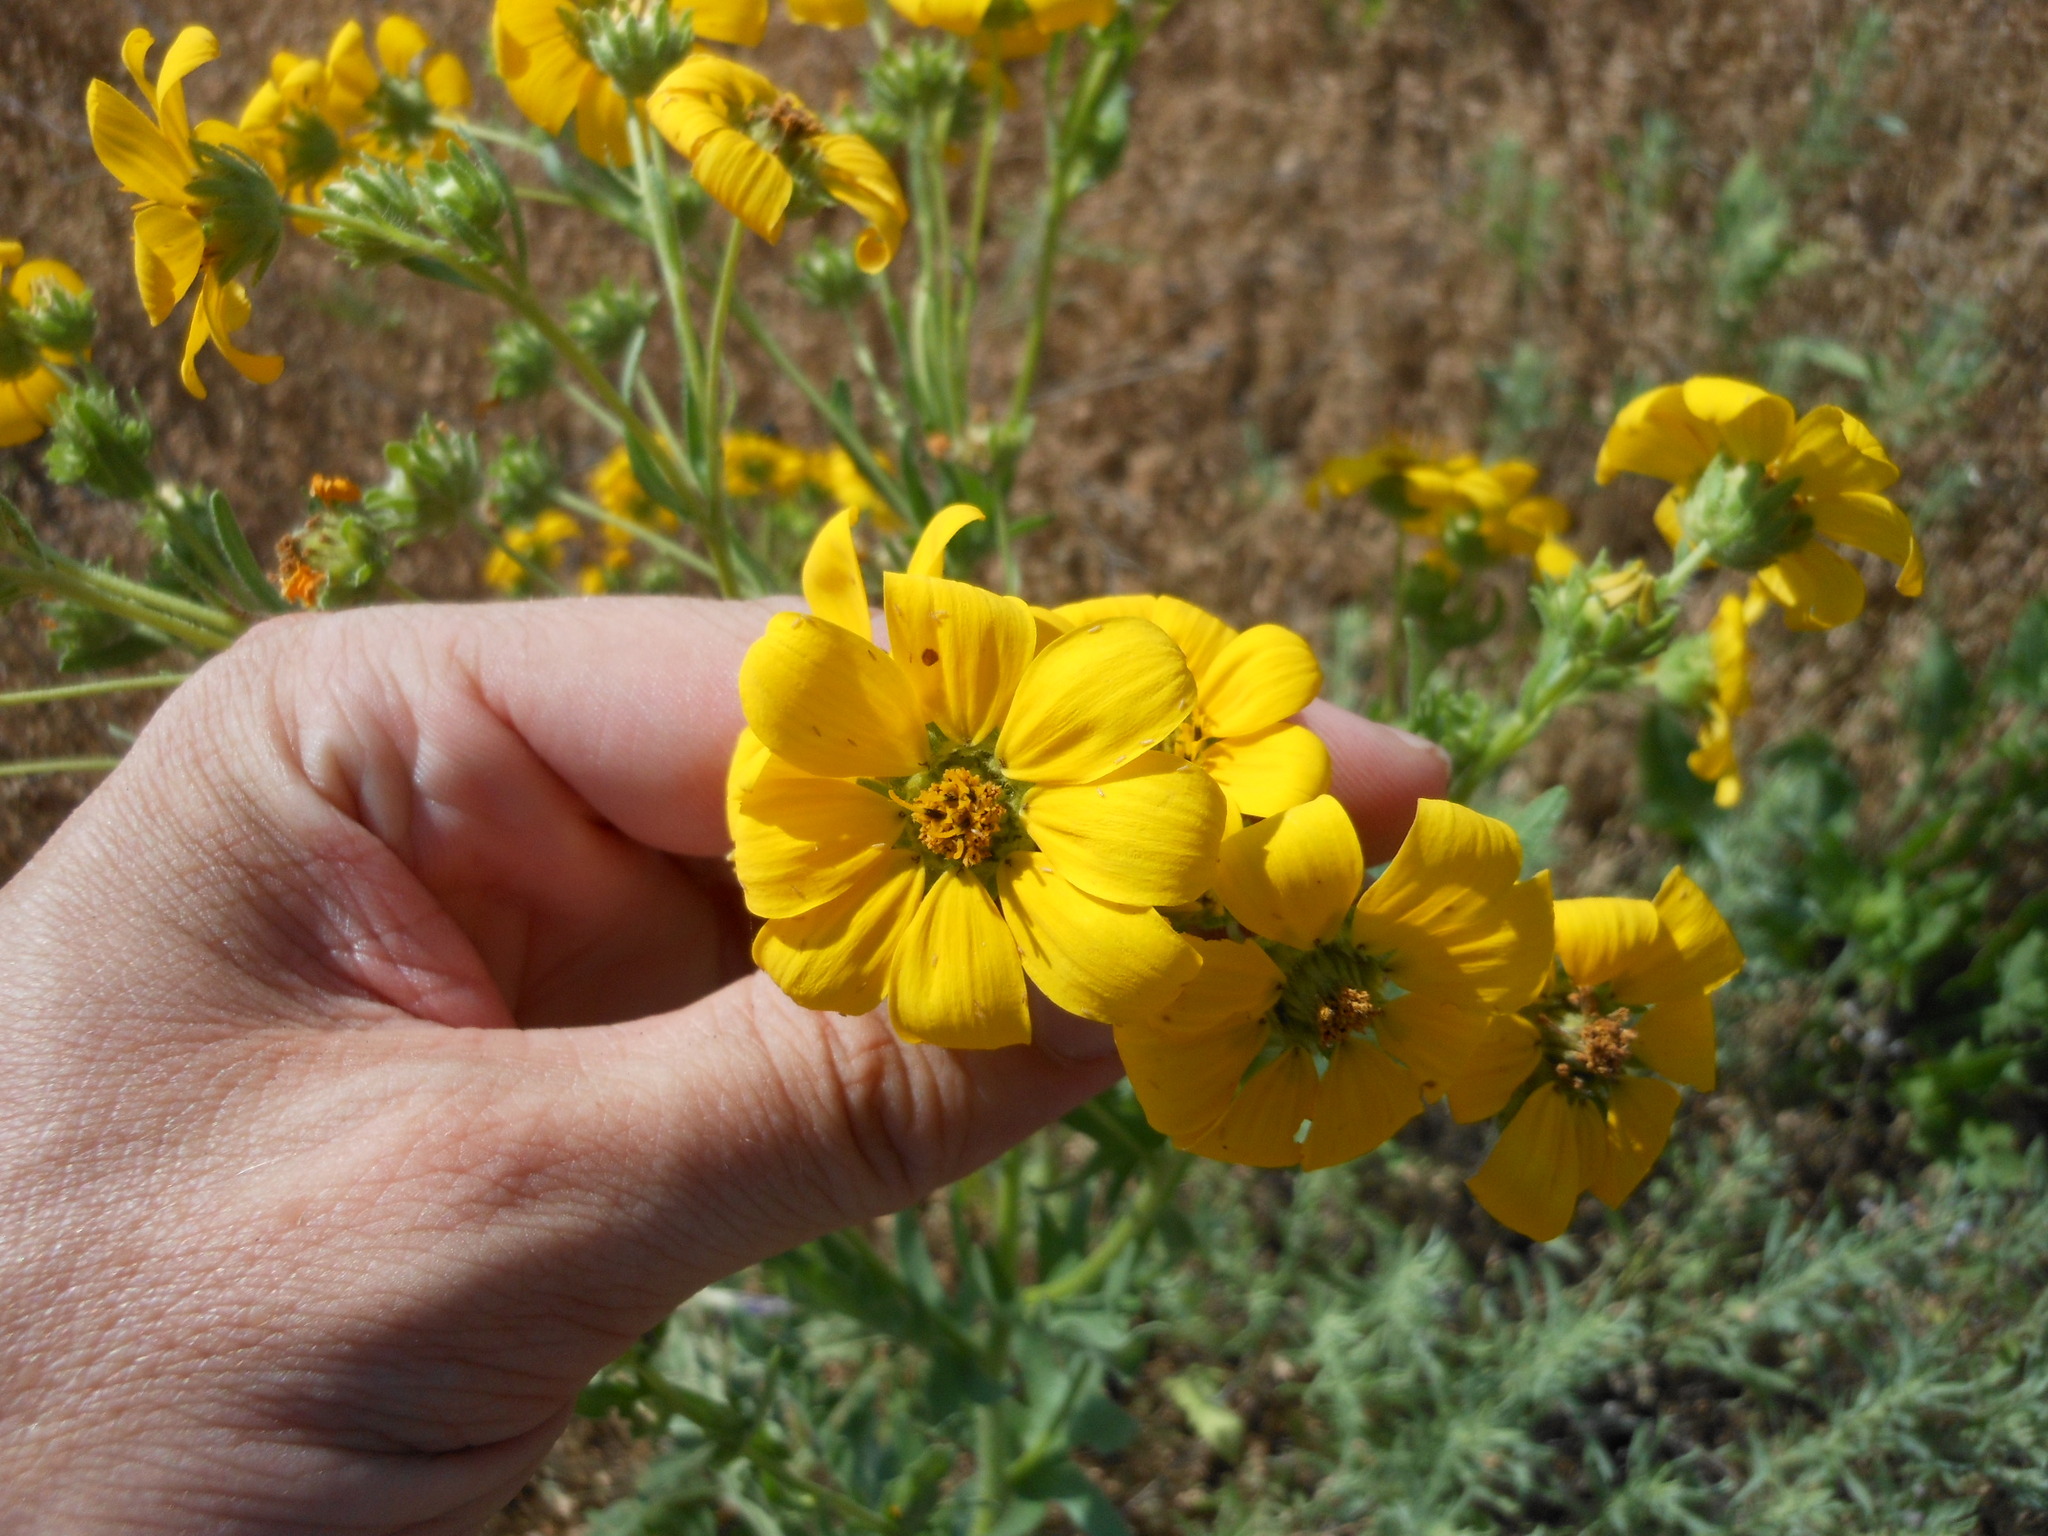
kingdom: Plantae
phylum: Tracheophyta
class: Magnoliopsida
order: Asterales
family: Asteraceae
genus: Engelmannia
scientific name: Engelmannia peristenia
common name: Engelmann's daisy
